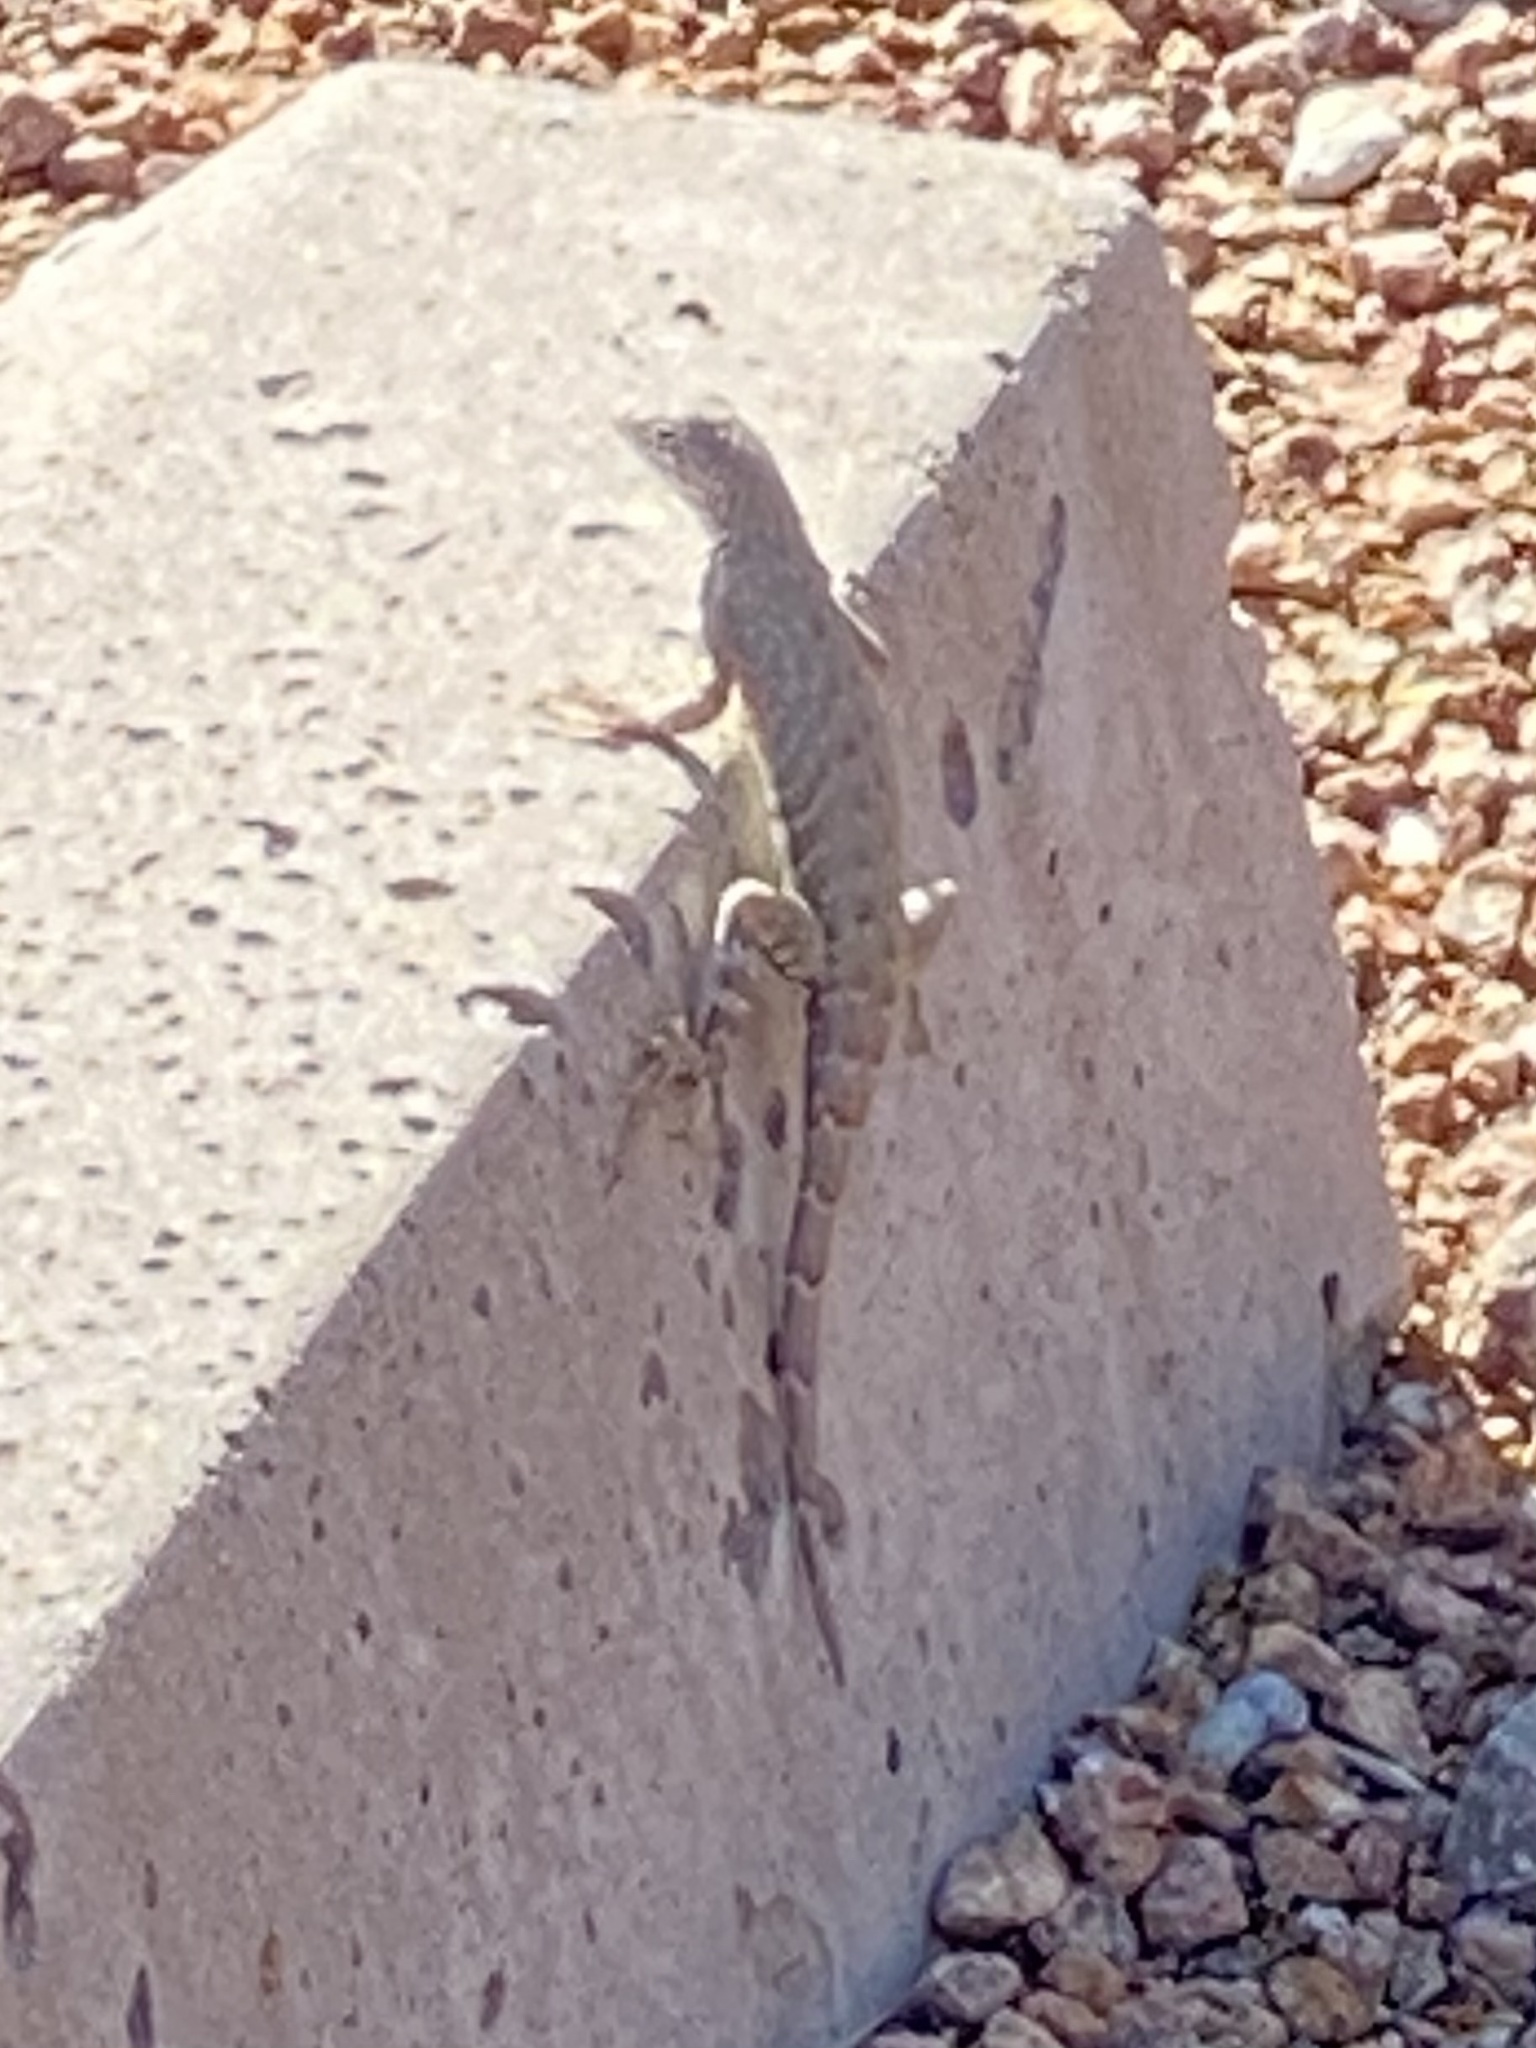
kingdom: Animalia
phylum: Chordata
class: Squamata
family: Phrynosomatidae
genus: Cophosaurus
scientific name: Cophosaurus texanus
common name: Greater earless lizard
